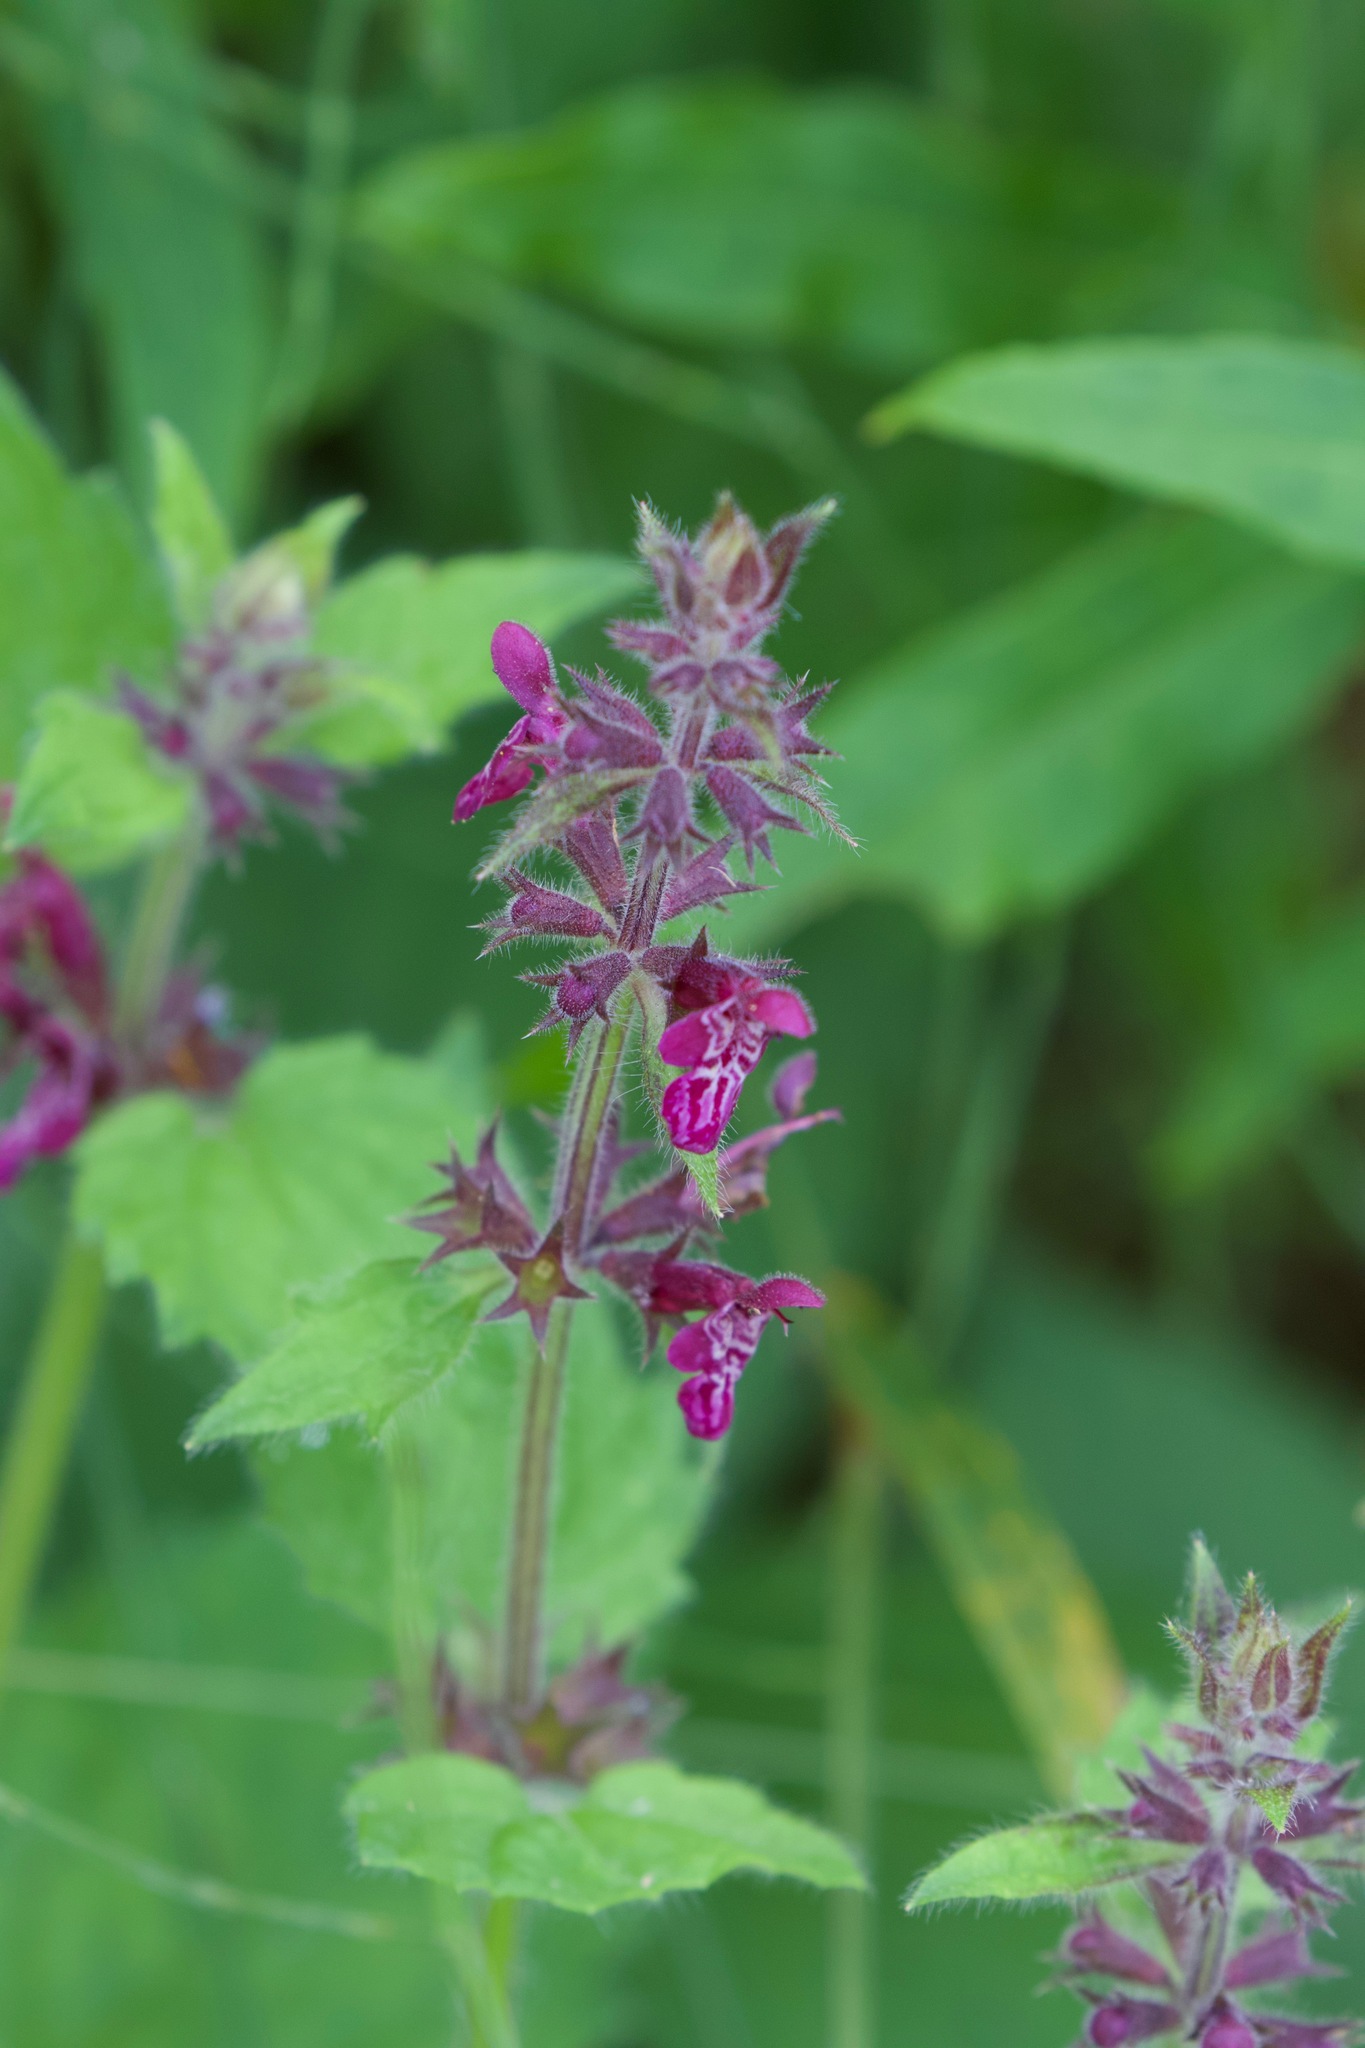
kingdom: Plantae
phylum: Tracheophyta
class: Magnoliopsida
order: Lamiales
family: Lamiaceae
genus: Stachys
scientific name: Stachys sylvatica
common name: Hedge woundwort
